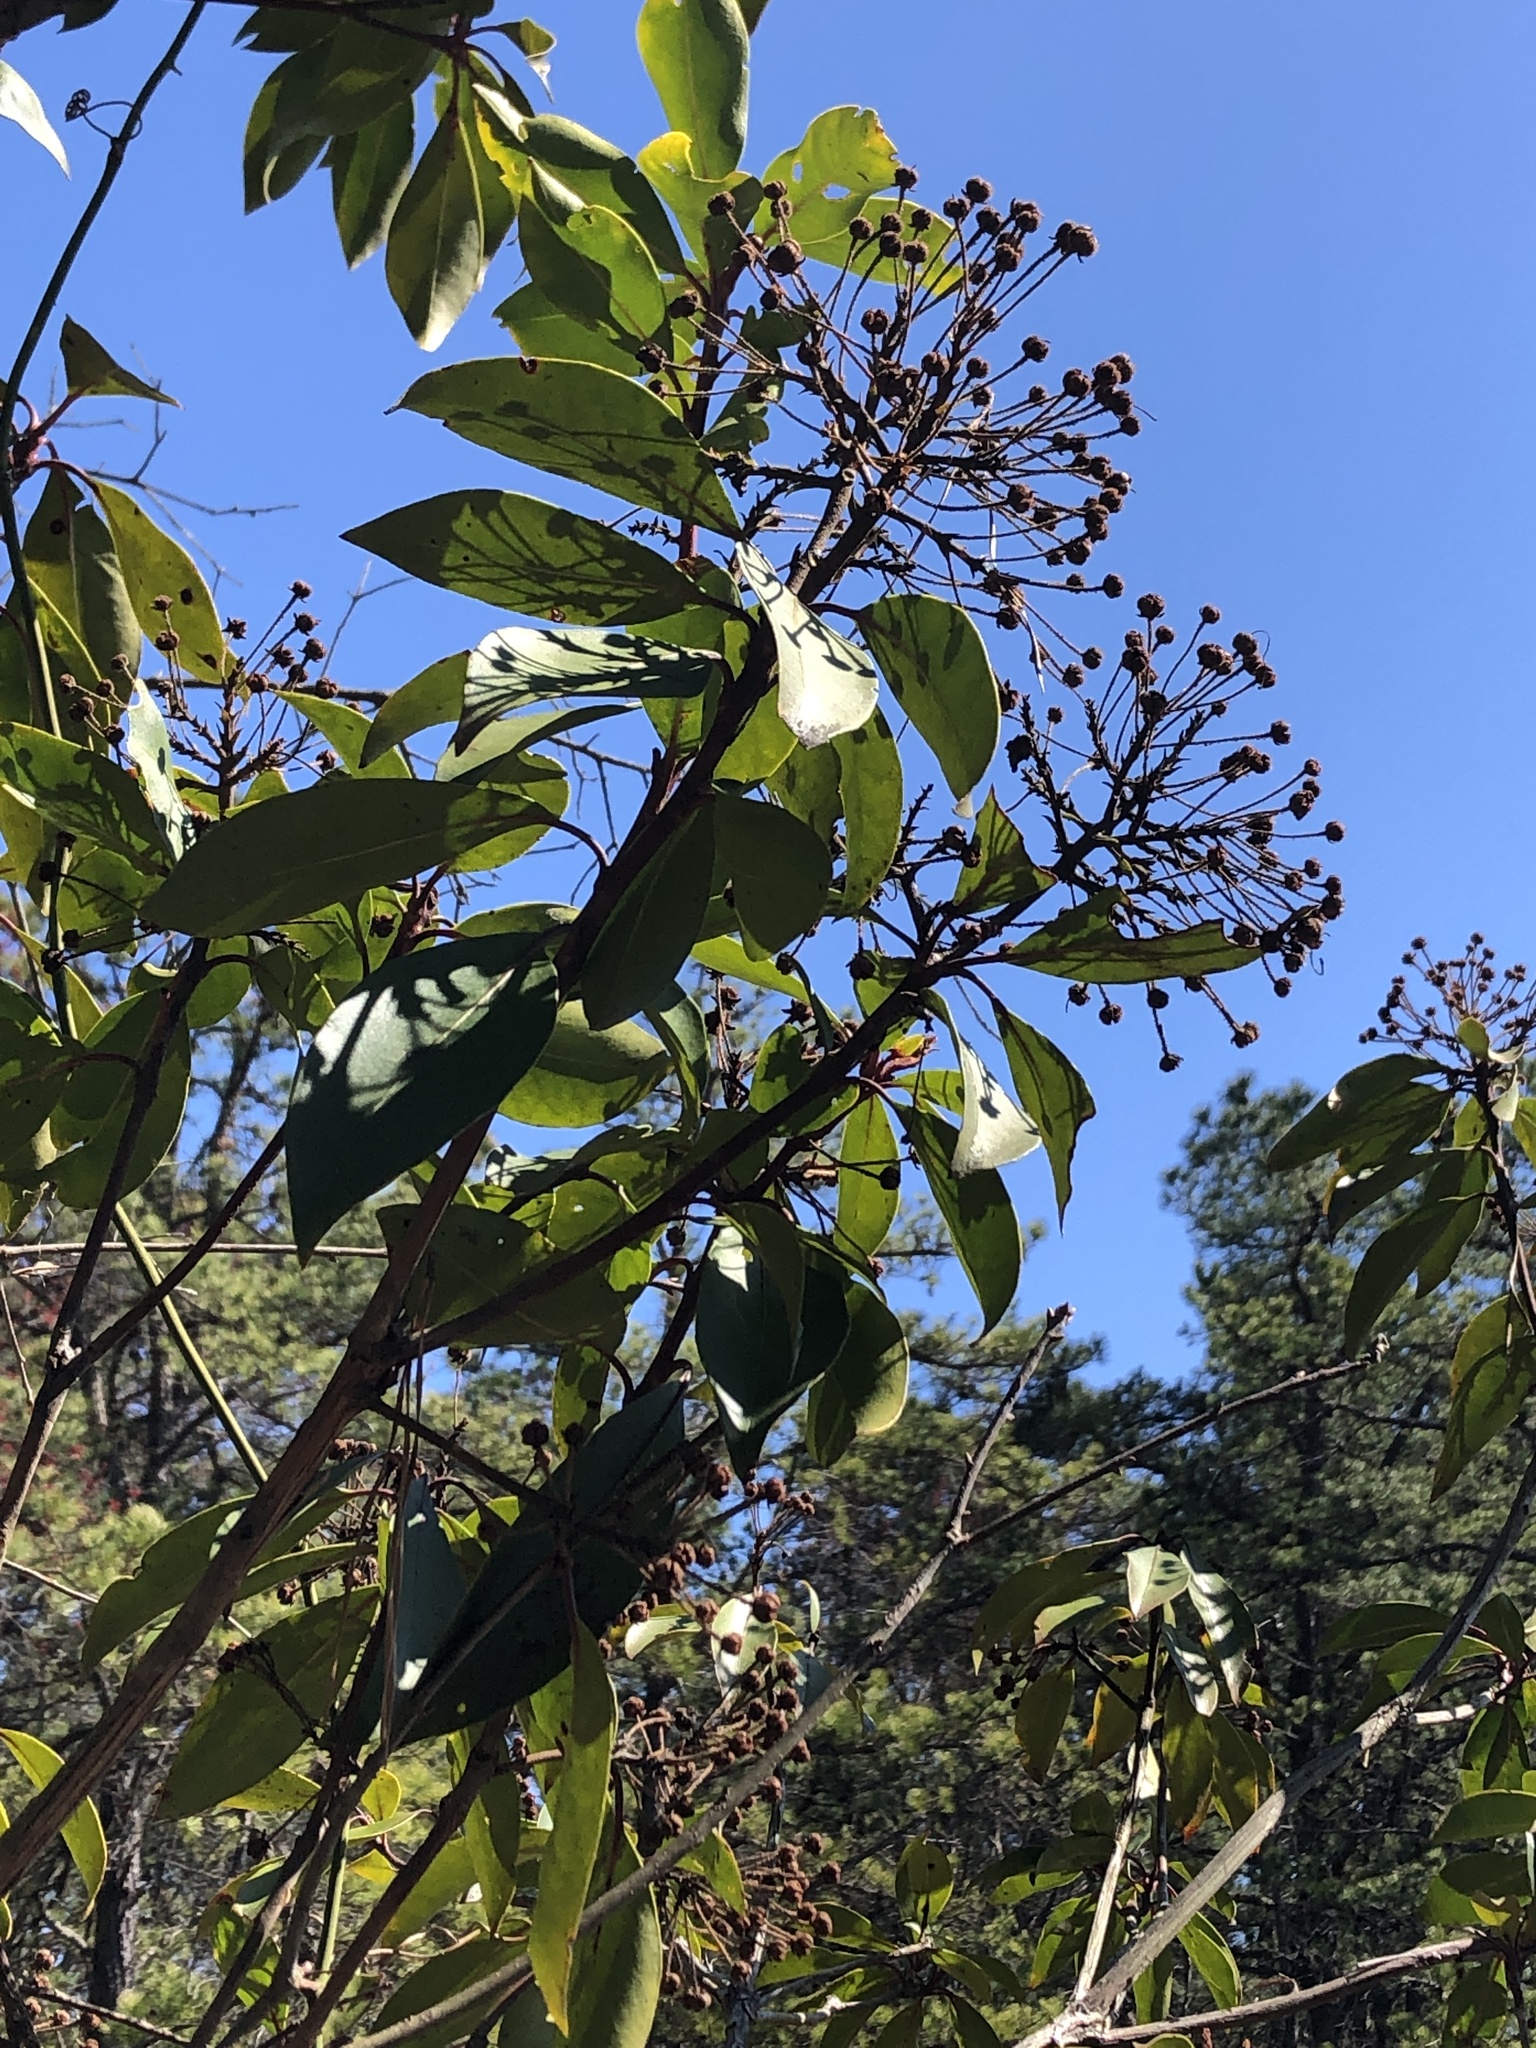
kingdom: Plantae
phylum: Tracheophyta
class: Magnoliopsida
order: Ericales
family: Ericaceae
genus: Kalmia
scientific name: Kalmia latifolia
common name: Mountain-laurel
